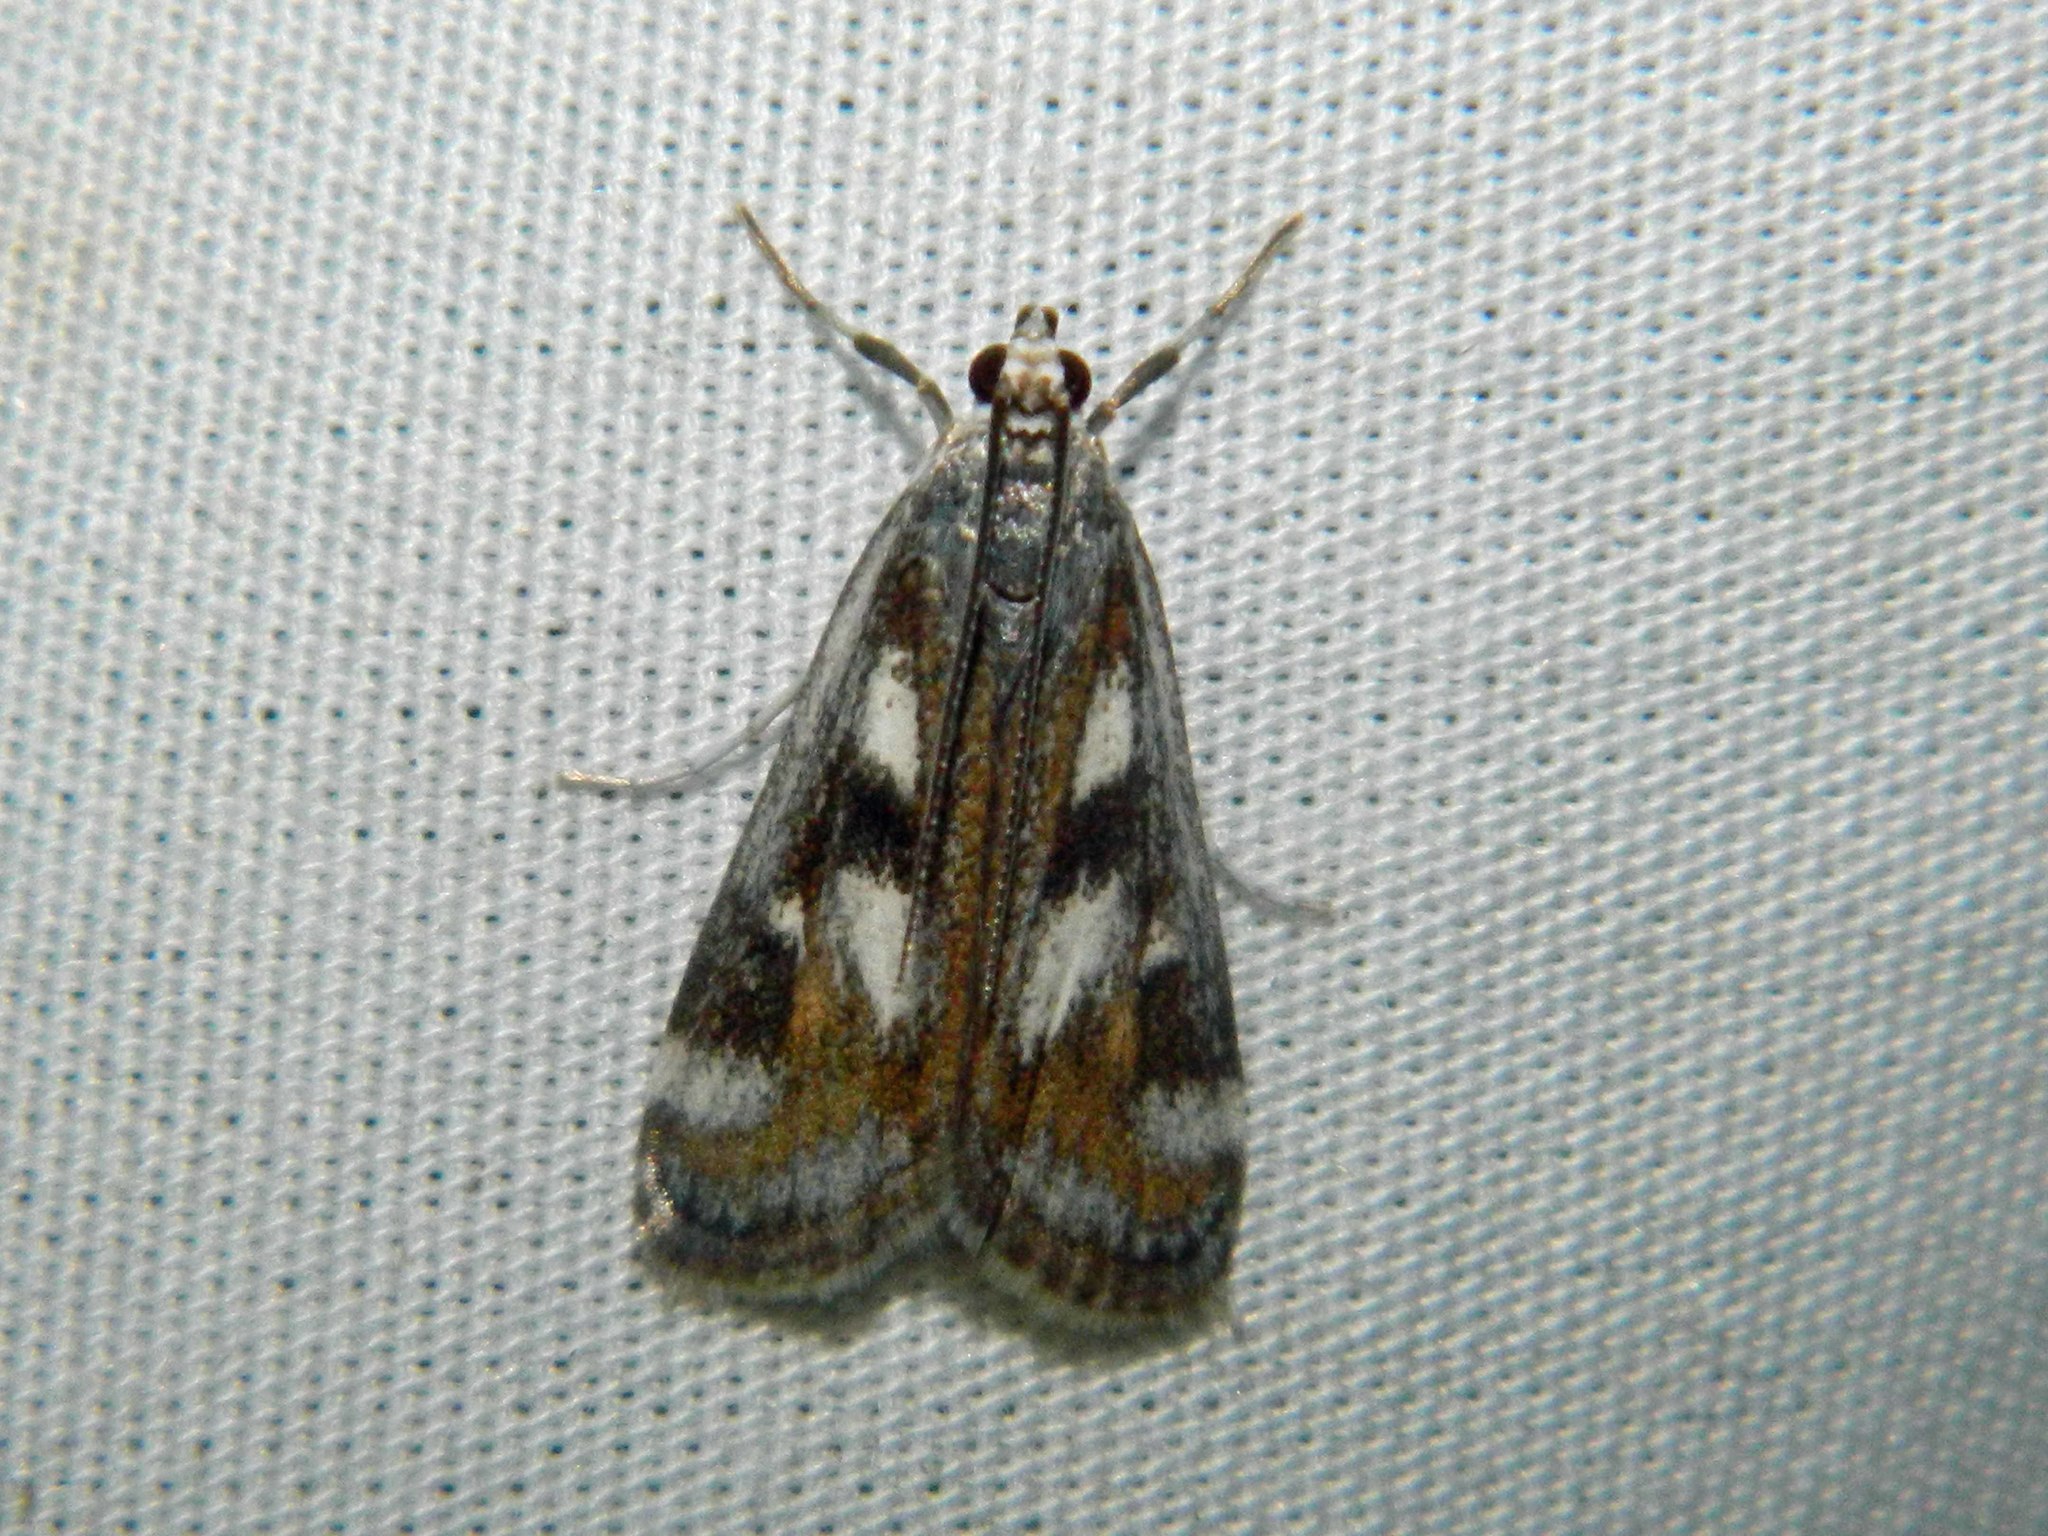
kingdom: Animalia
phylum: Arthropoda
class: Insecta
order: Lepidoptera
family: Crambidae
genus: Parapoynx
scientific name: Parapoynx maculalis
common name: Polymorphic pondweed moth
